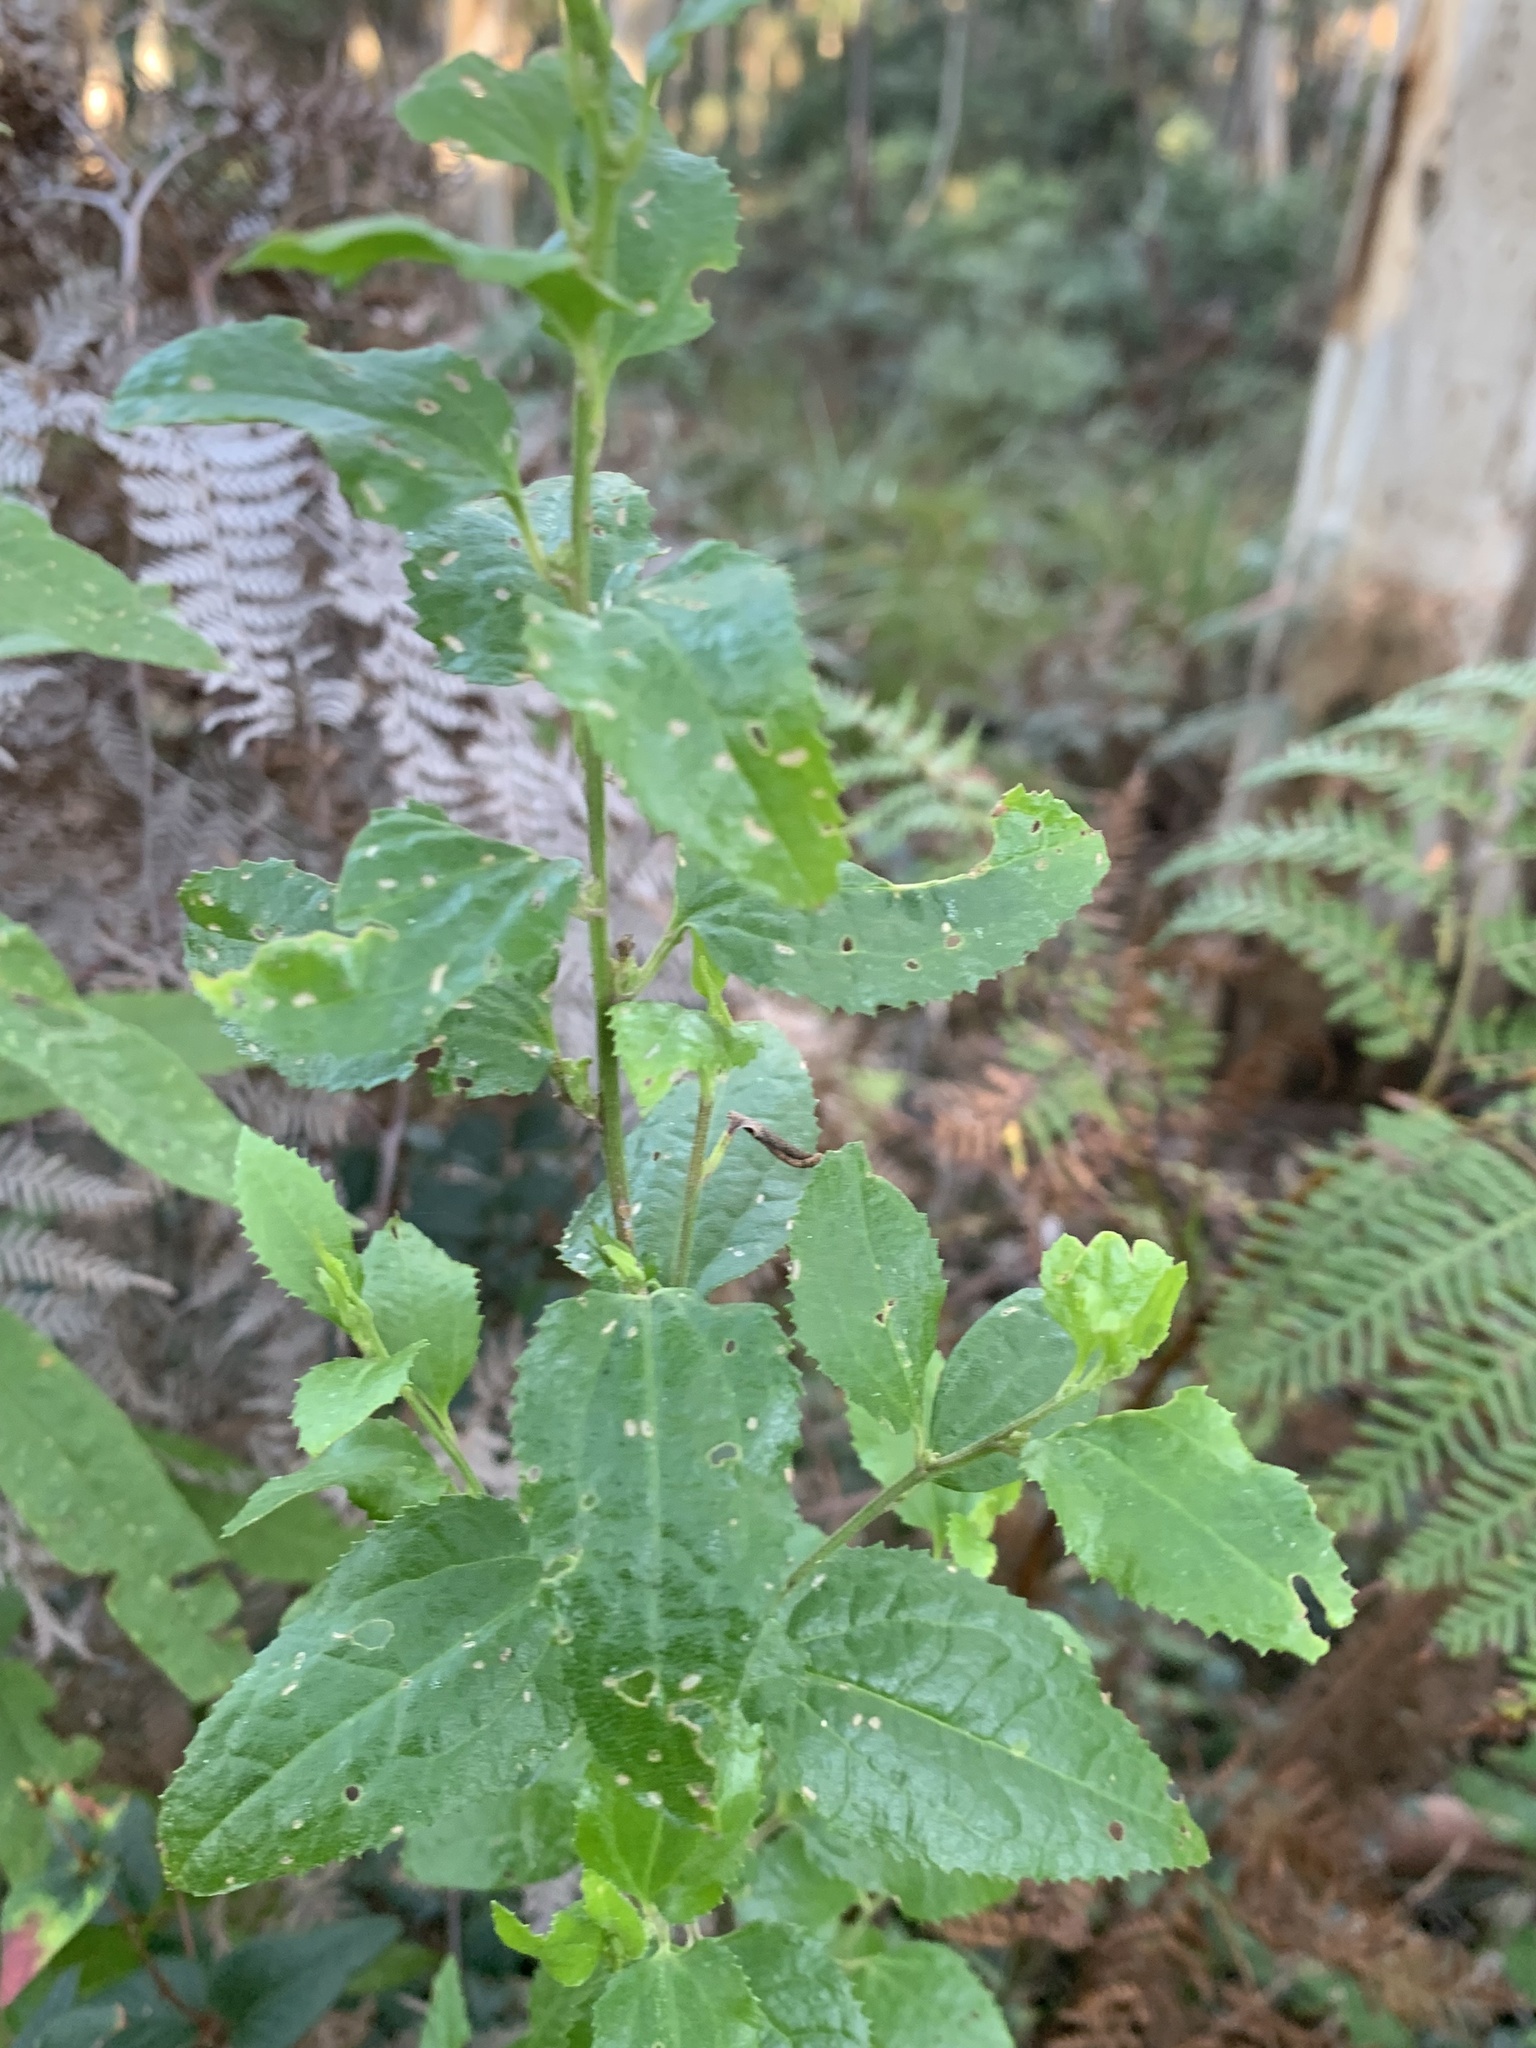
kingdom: Plantae
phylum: Tracheophyta
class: Magnoliopsida
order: Asterales
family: Goodeniaceae
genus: Goodenia
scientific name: Goodenia ovata
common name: Hop goodenia
